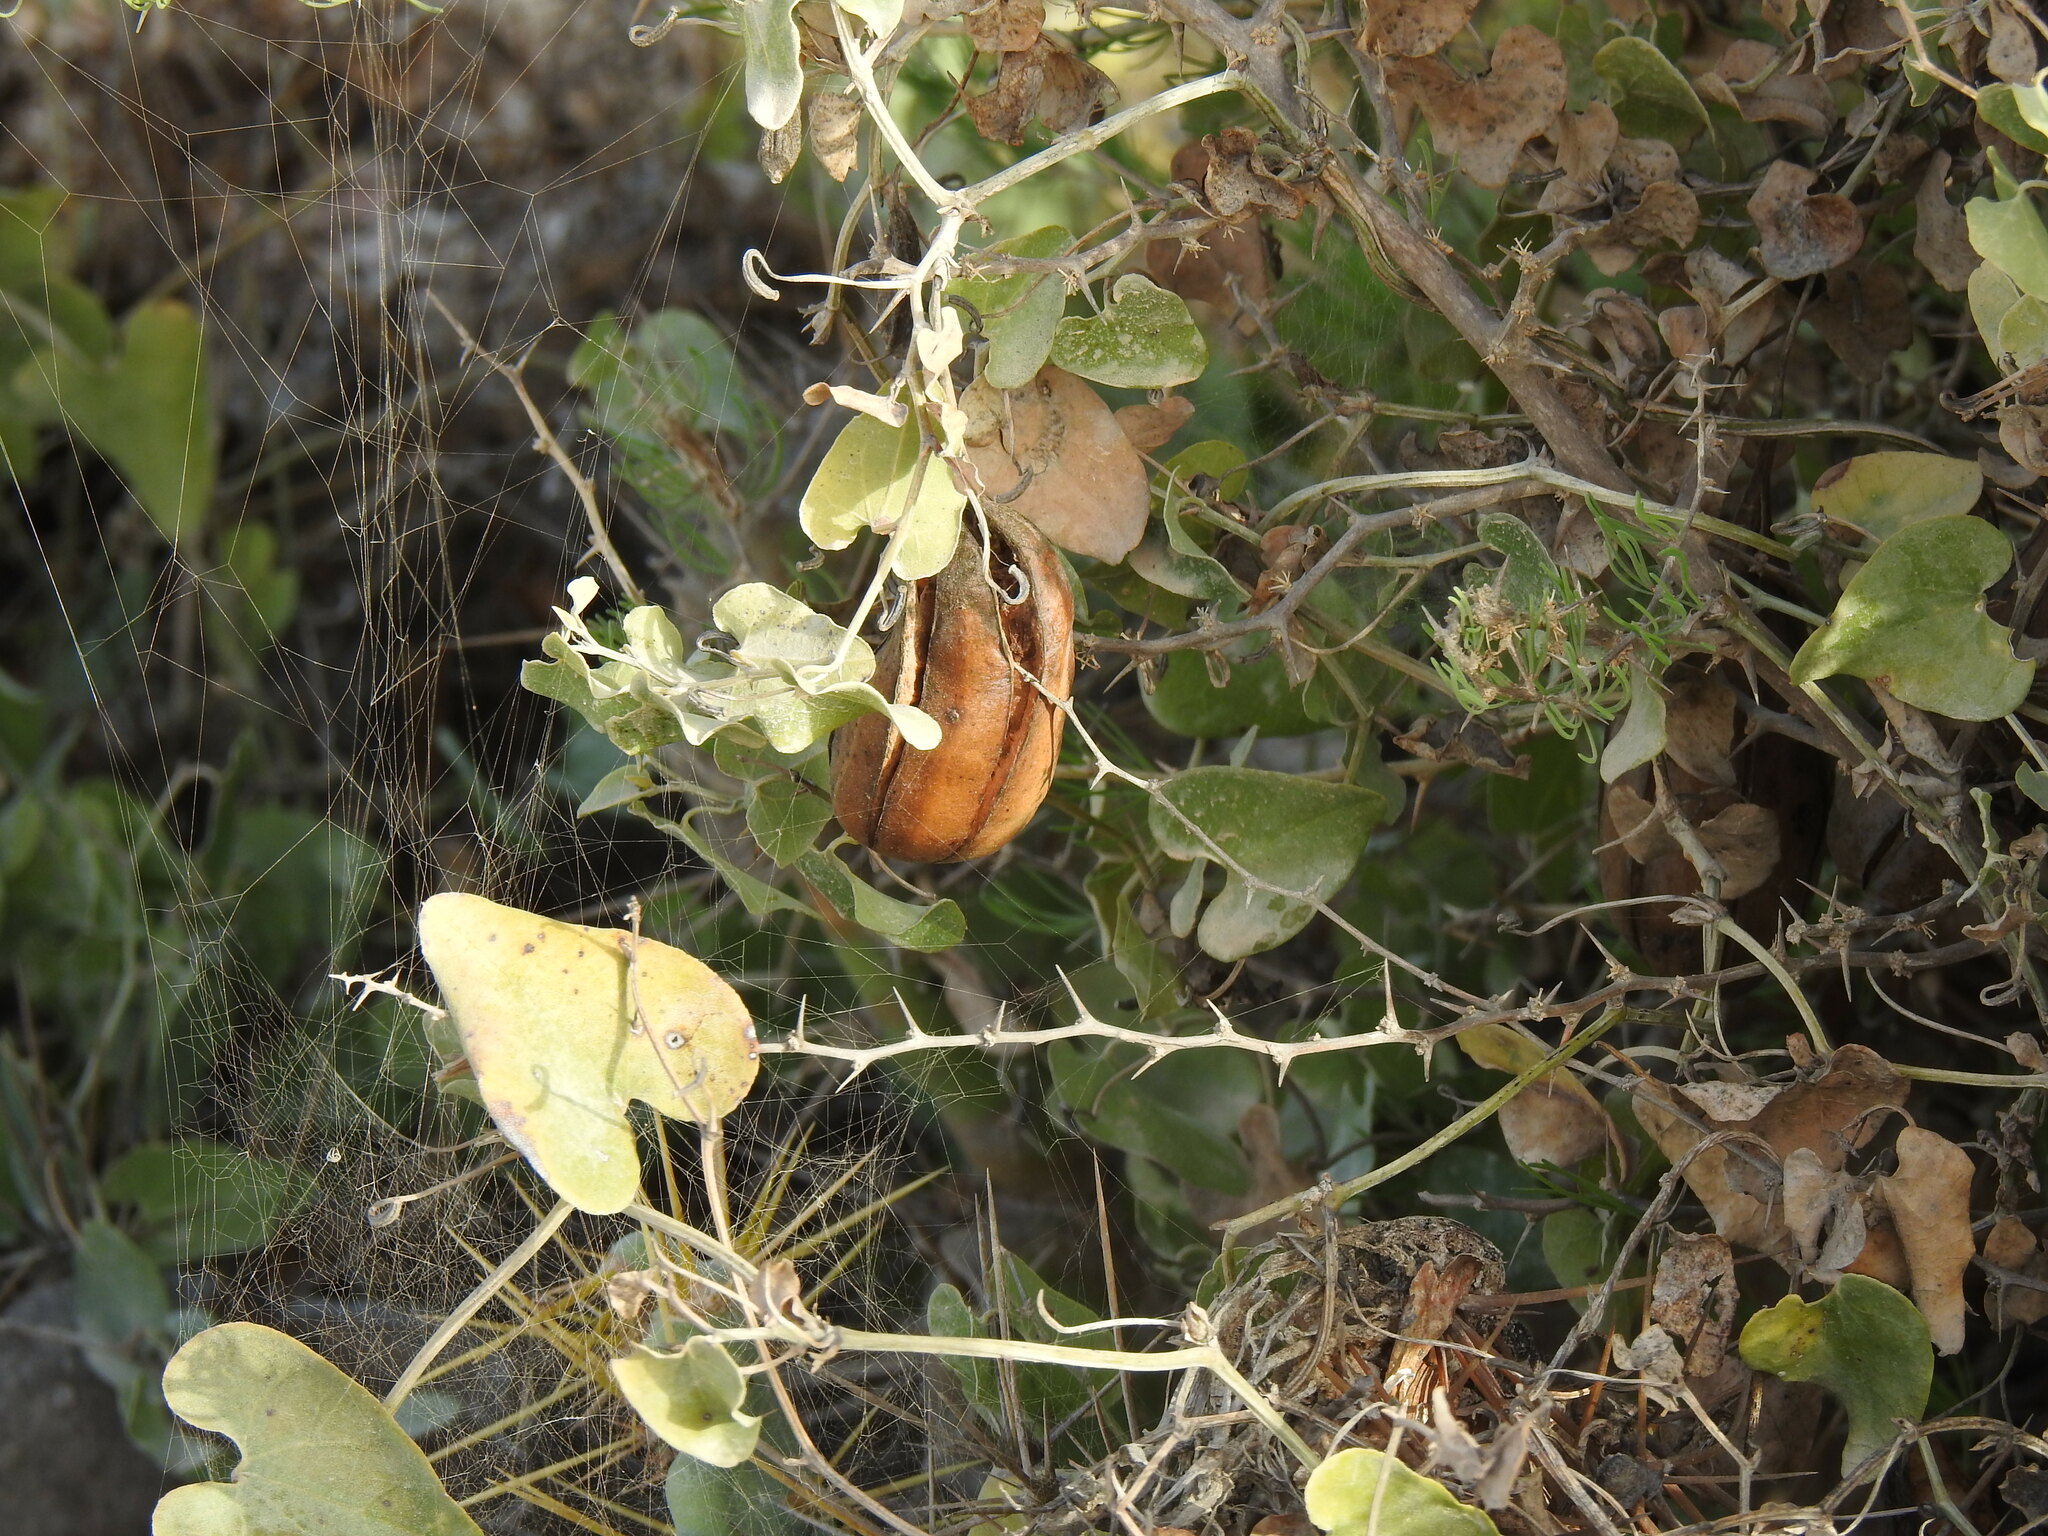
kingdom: Plantae
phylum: Tracheophyta
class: Magnoliopsida
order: Piperales
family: Aristolochiaceae
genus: Aristolochia
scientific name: Aristolochia baetica
